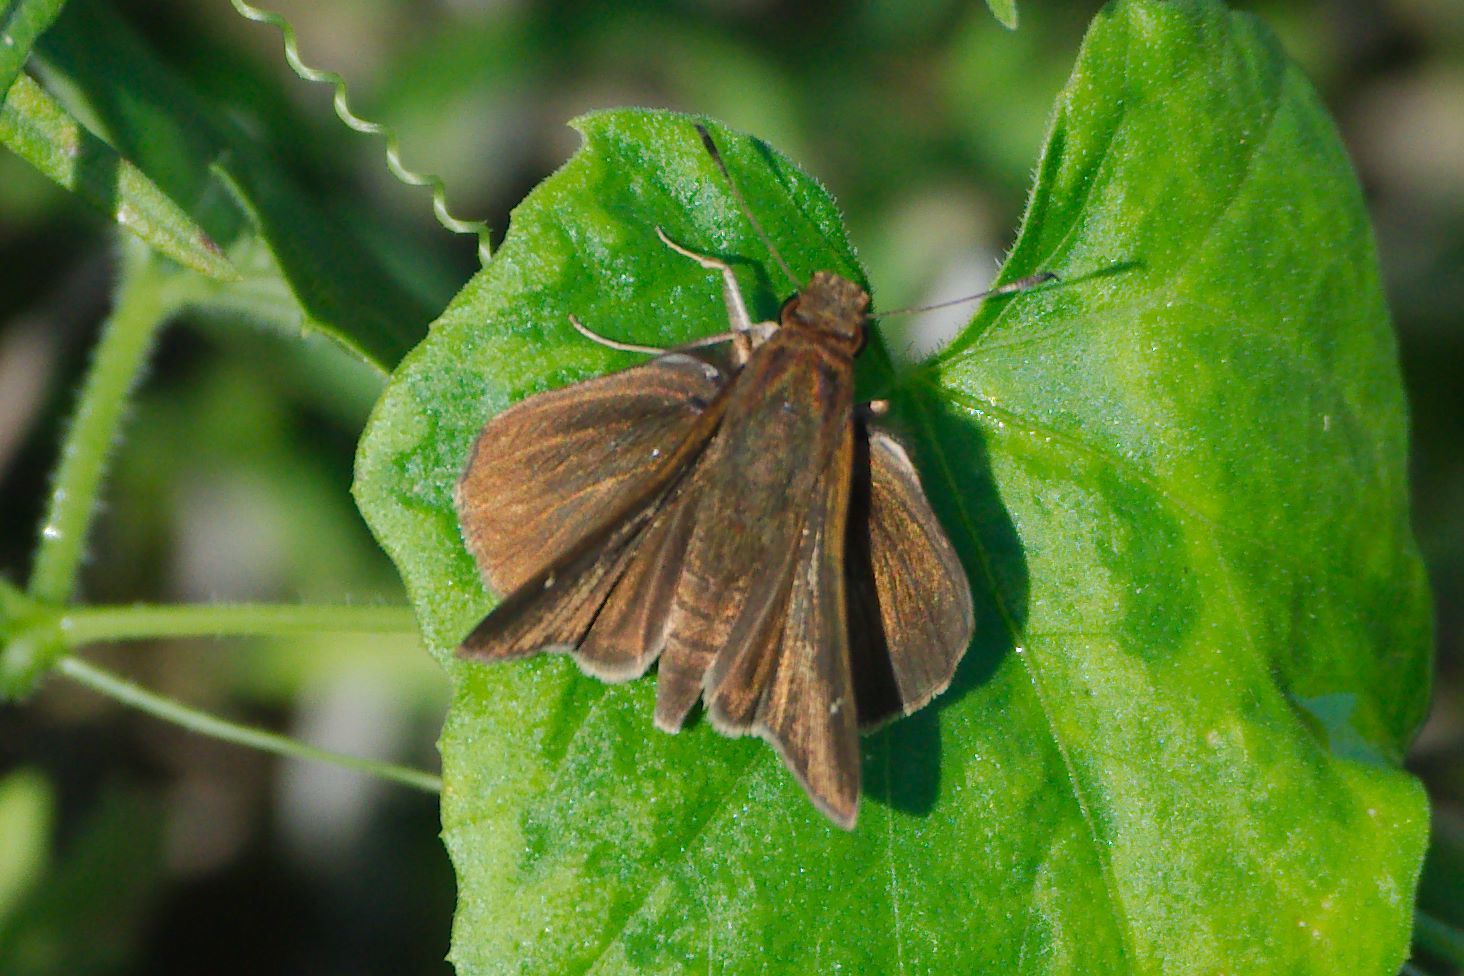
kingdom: Animalia
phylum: Arthropoda
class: Insecta
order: Lepidoptera
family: Hesperiidae
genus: Lerema
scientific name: Lerema accius
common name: Clouded skipper
